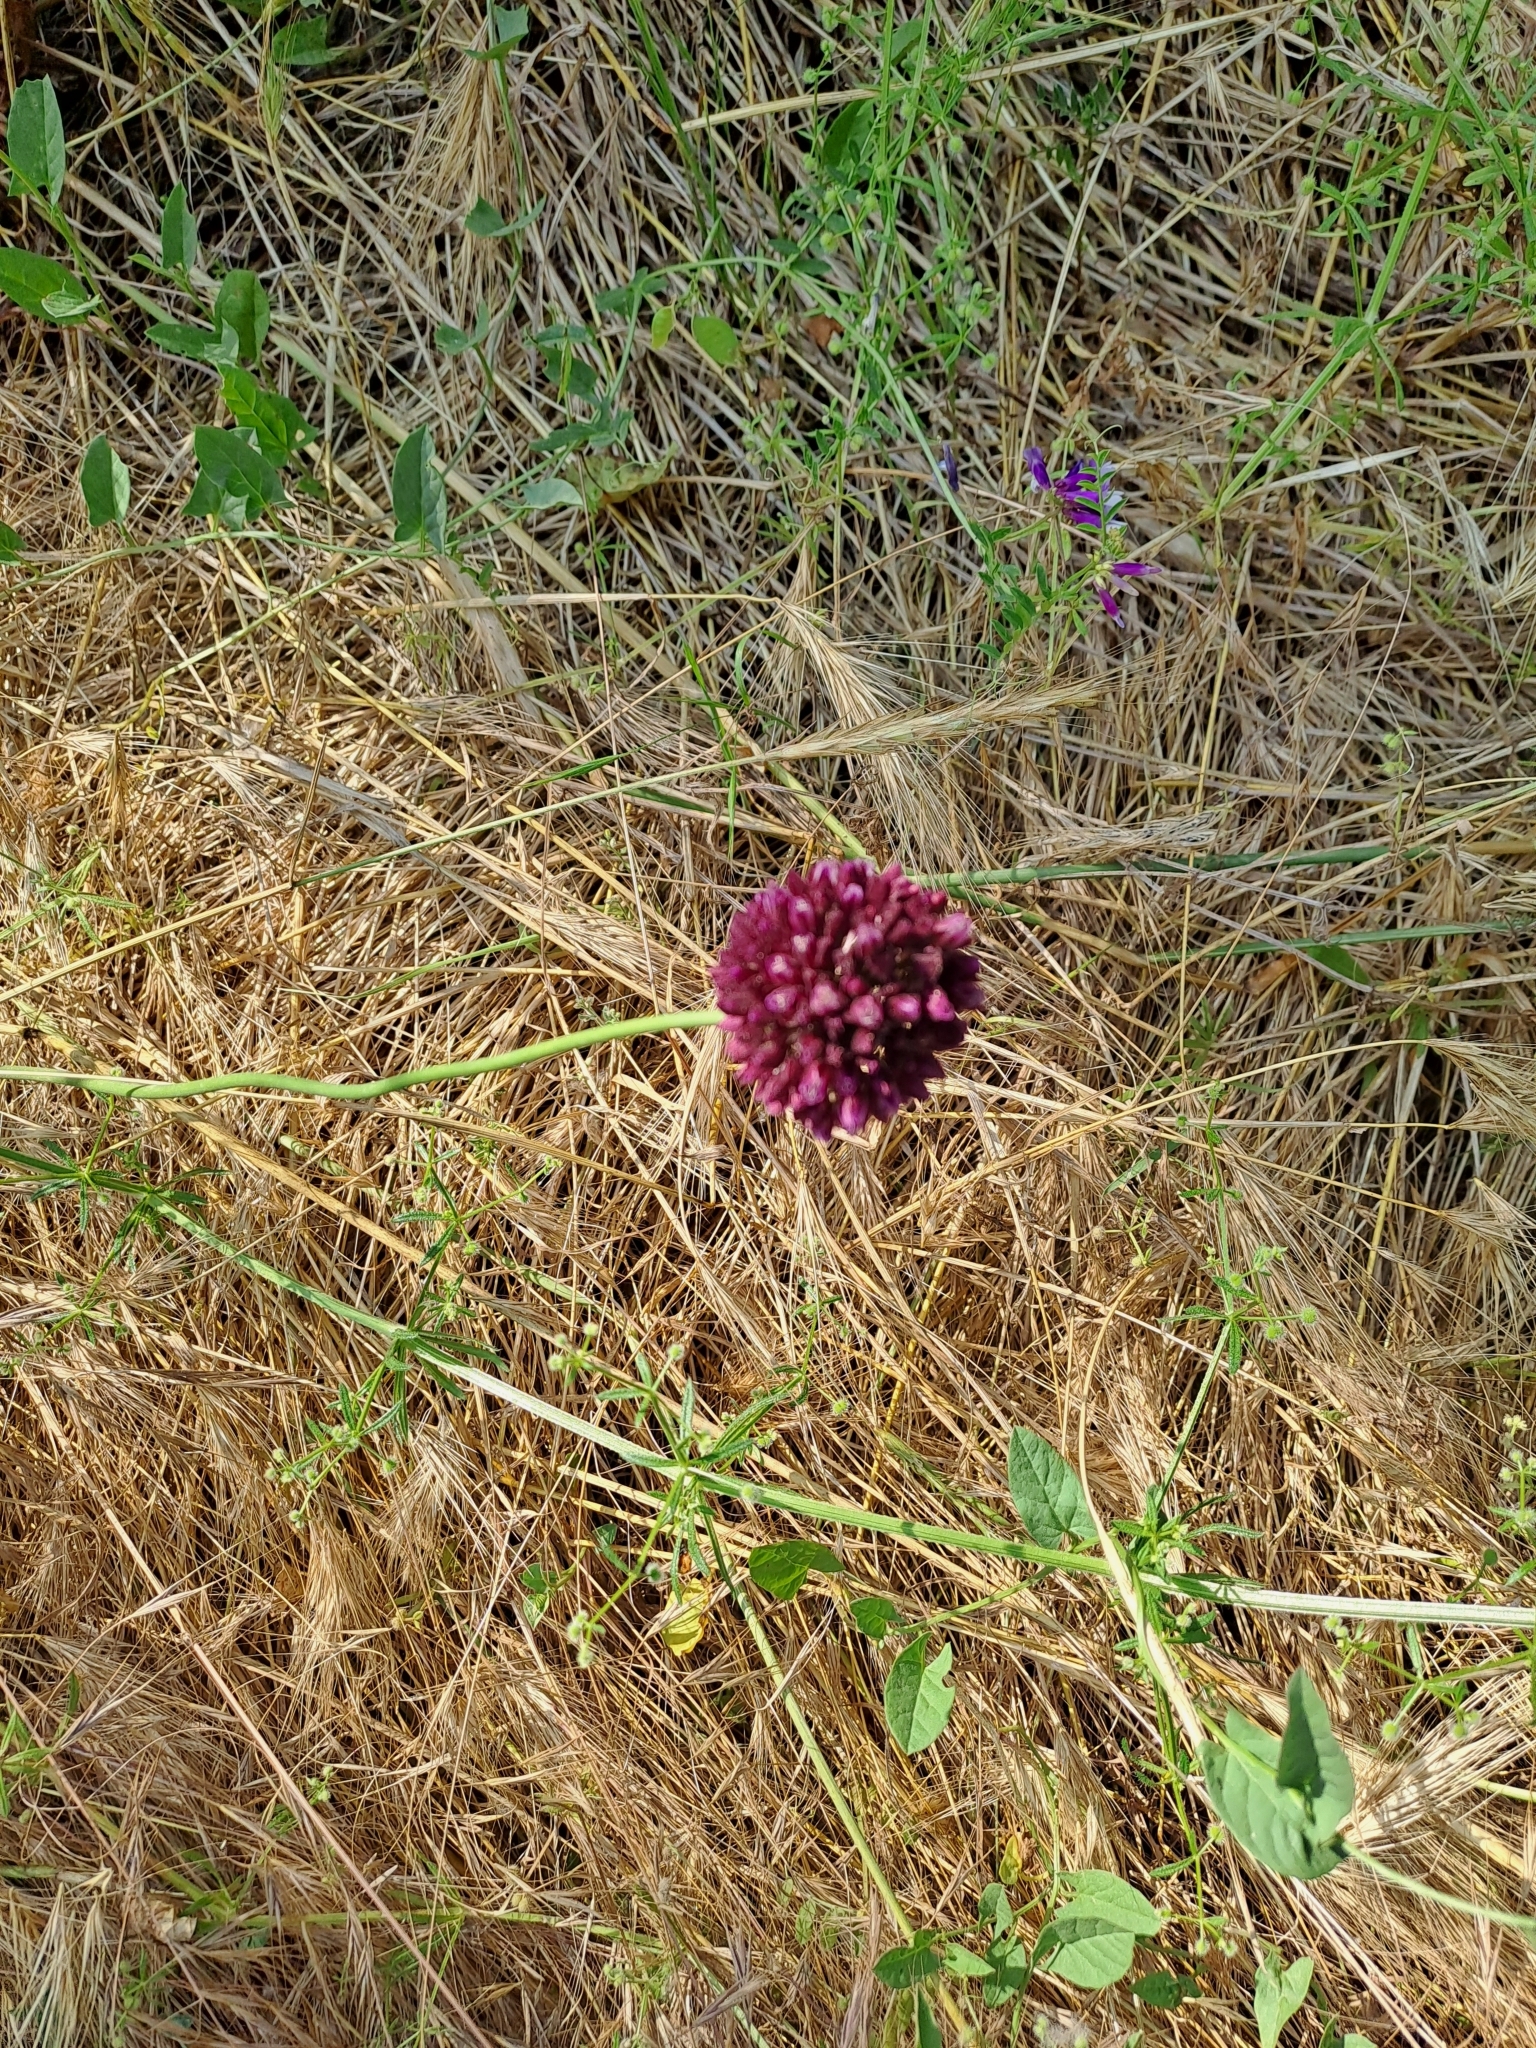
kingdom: Plantae
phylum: Tracheophyta
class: Liliopsida
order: Asparagales
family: Amaryllidaceae
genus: Allium
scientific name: Allium rotundum
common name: Sand leek
